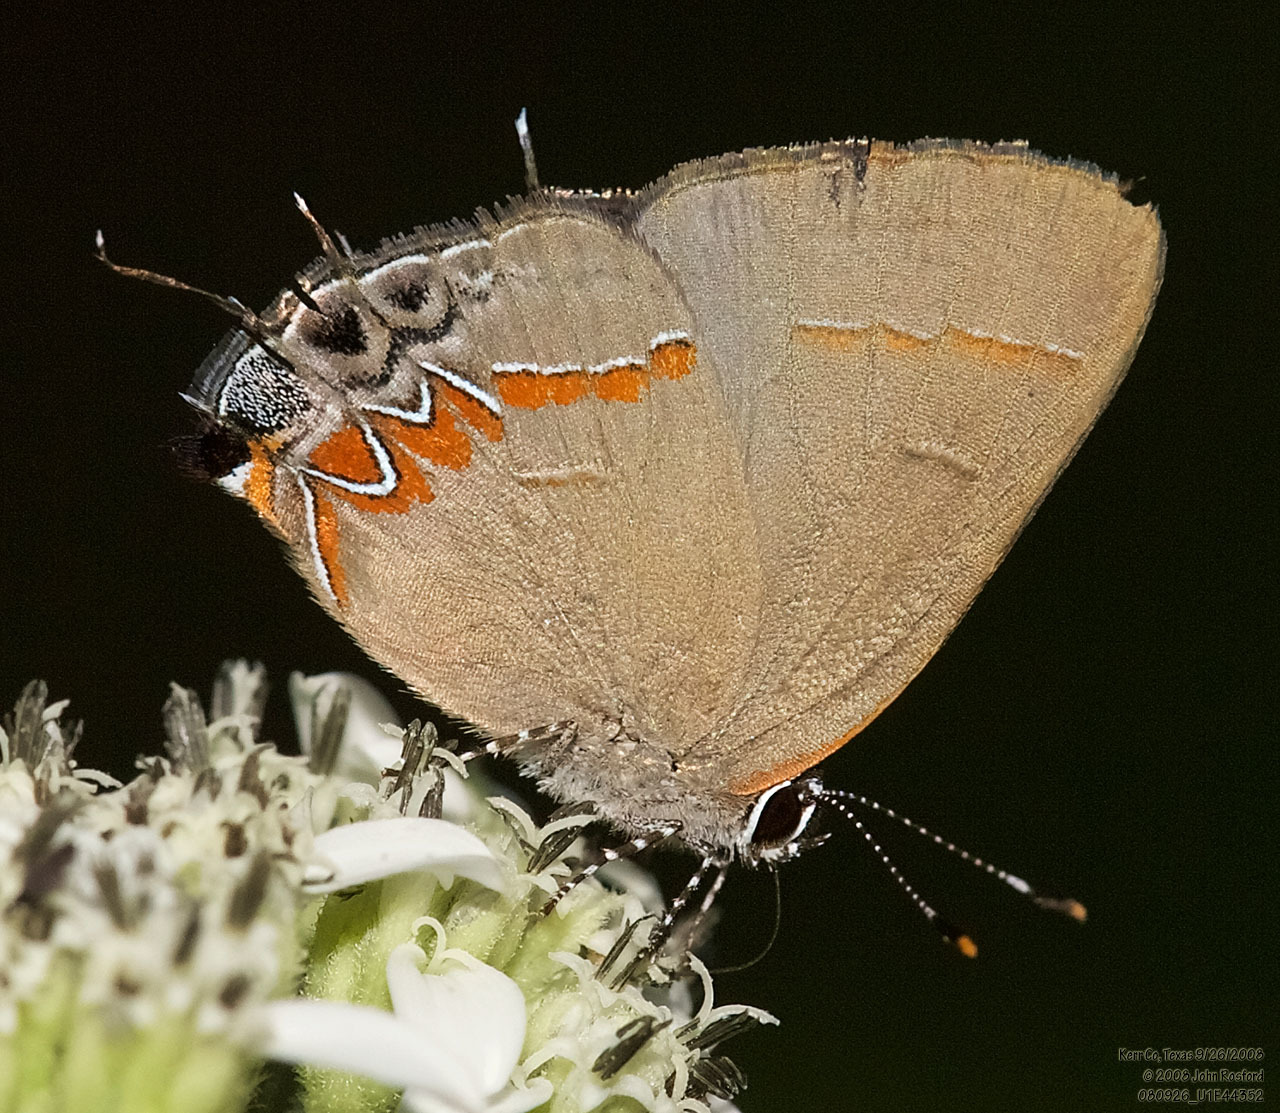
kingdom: Animalia
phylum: Arthropoda
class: Insecta
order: Lepidoptera
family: Lycaenidae
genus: Calycopis
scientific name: Calycopis isobeon
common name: Dusky-blue groundstreak
